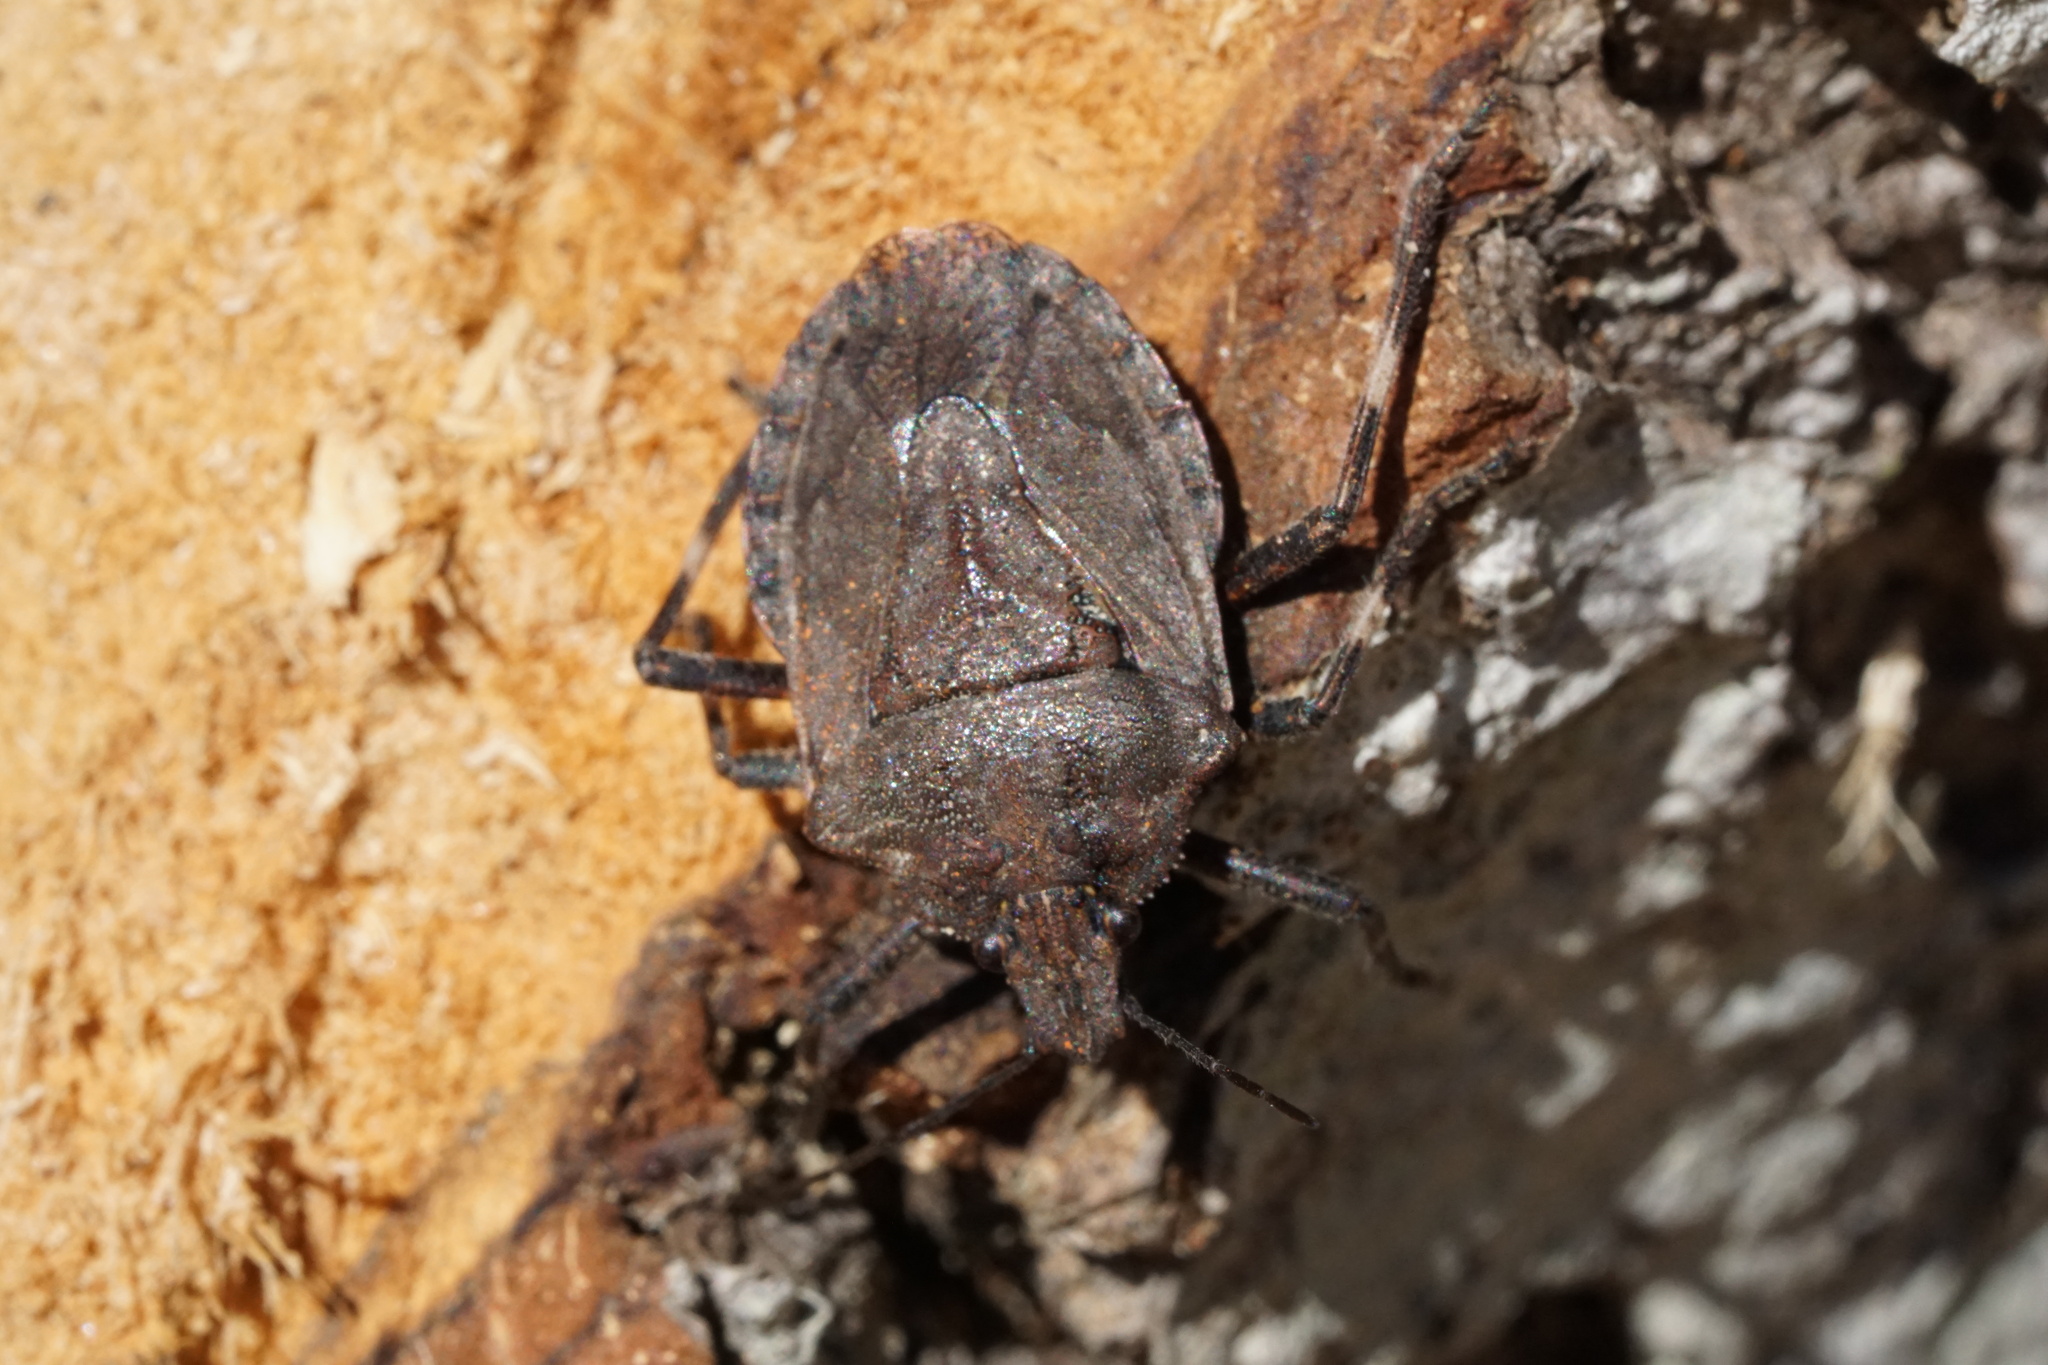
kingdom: Animalia
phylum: Arthropoda
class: Insecta
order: Hemiptera
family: Pentatomidae
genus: Brochymena
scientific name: Brochymena carolinensis
